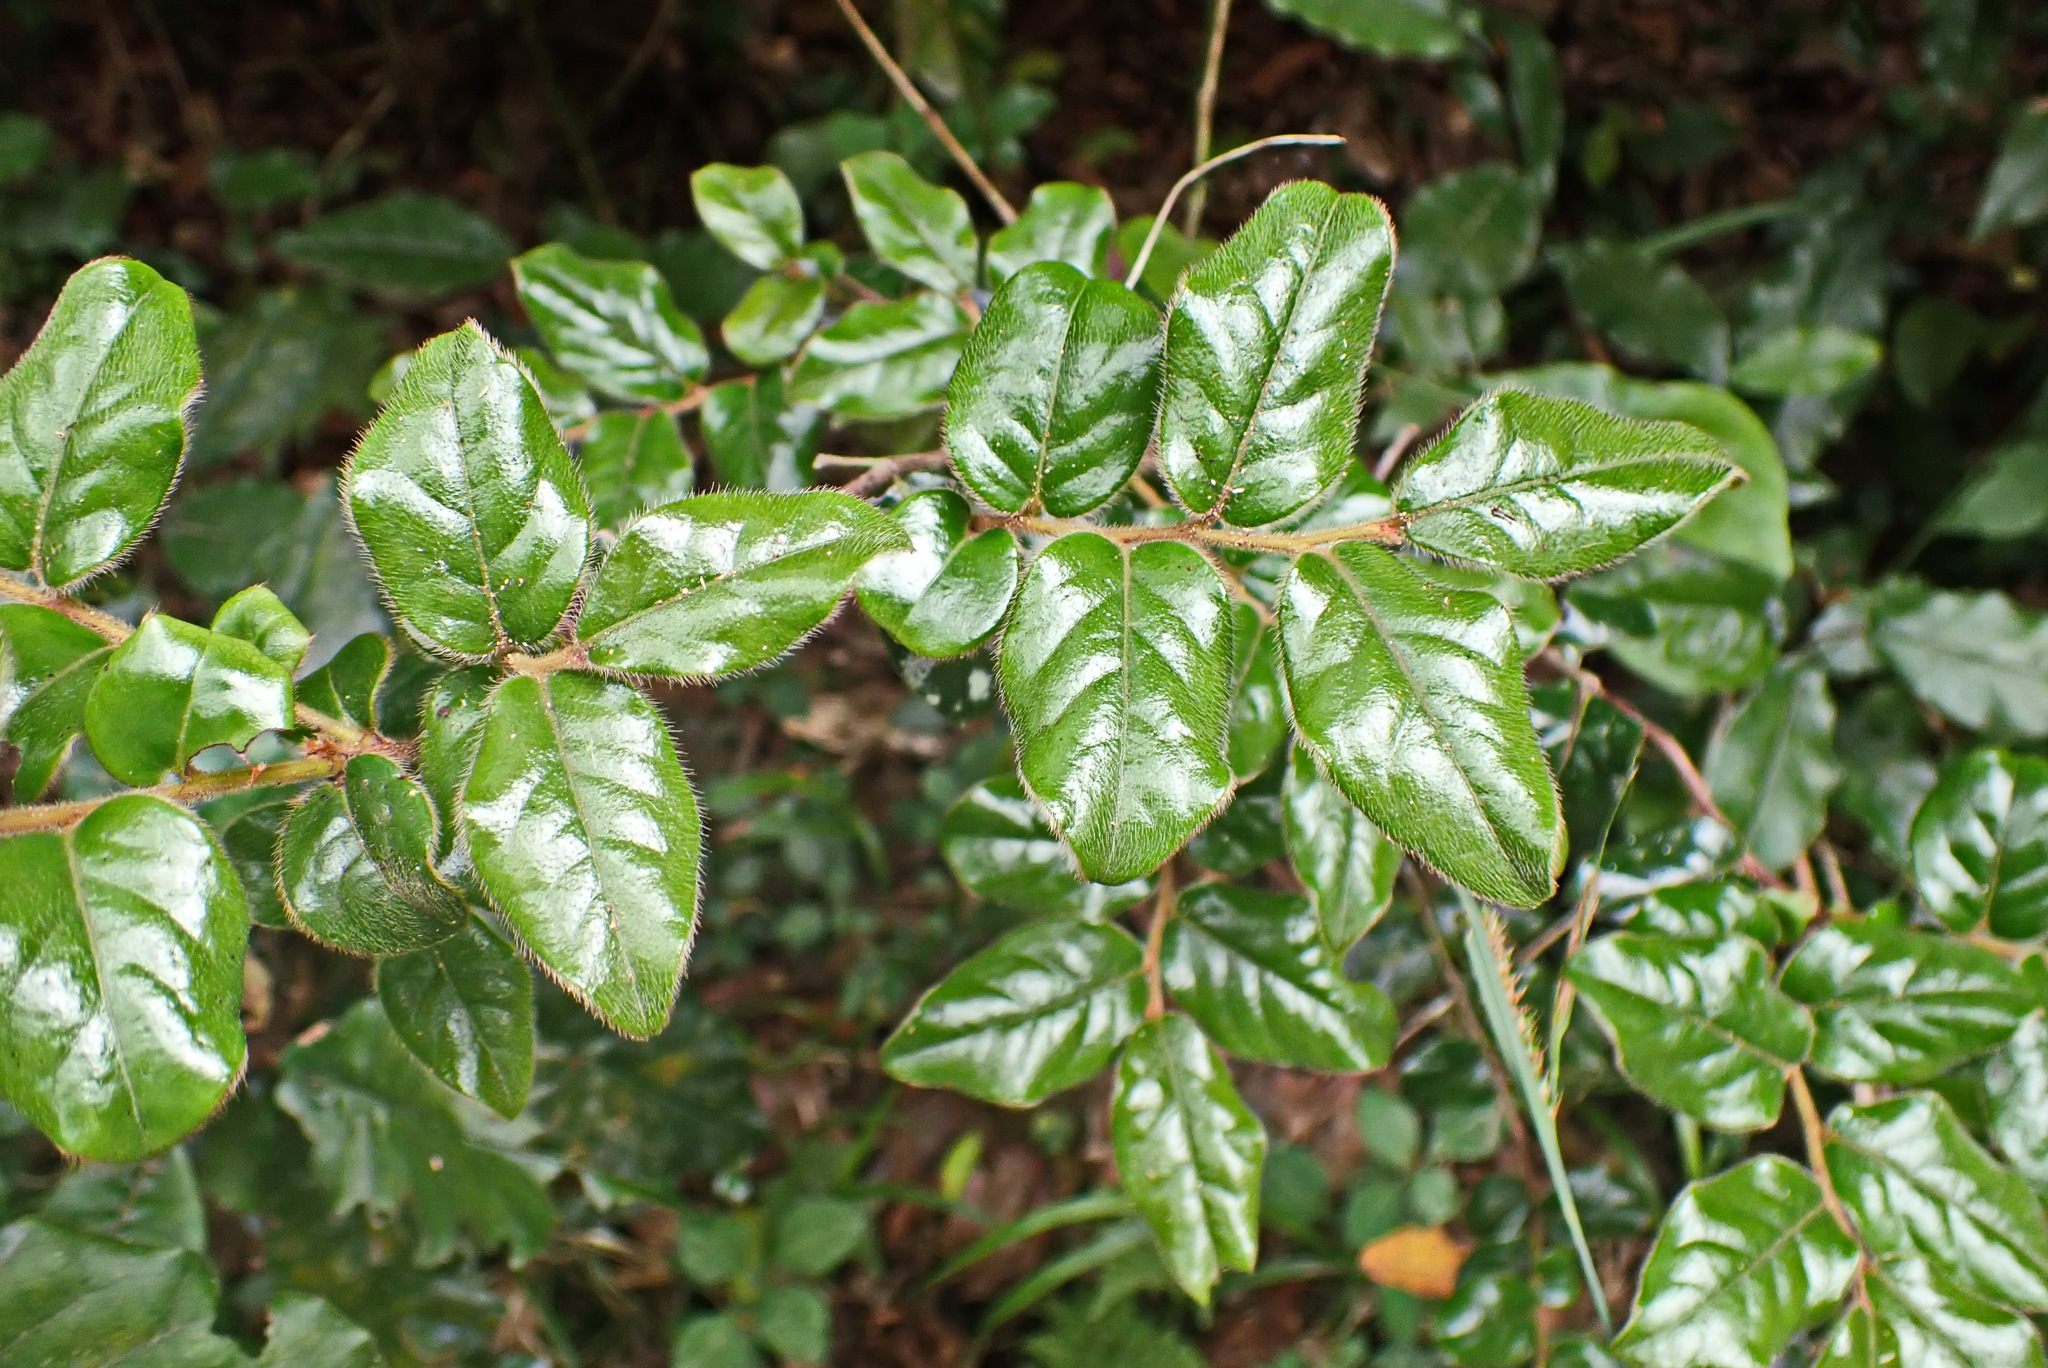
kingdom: Plantae
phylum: Tracheophyta
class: Magnoliopsida
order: Ericales
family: Ebenaceae
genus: Diospyros
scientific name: Diospyros whyteana
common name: Bladder-nut
